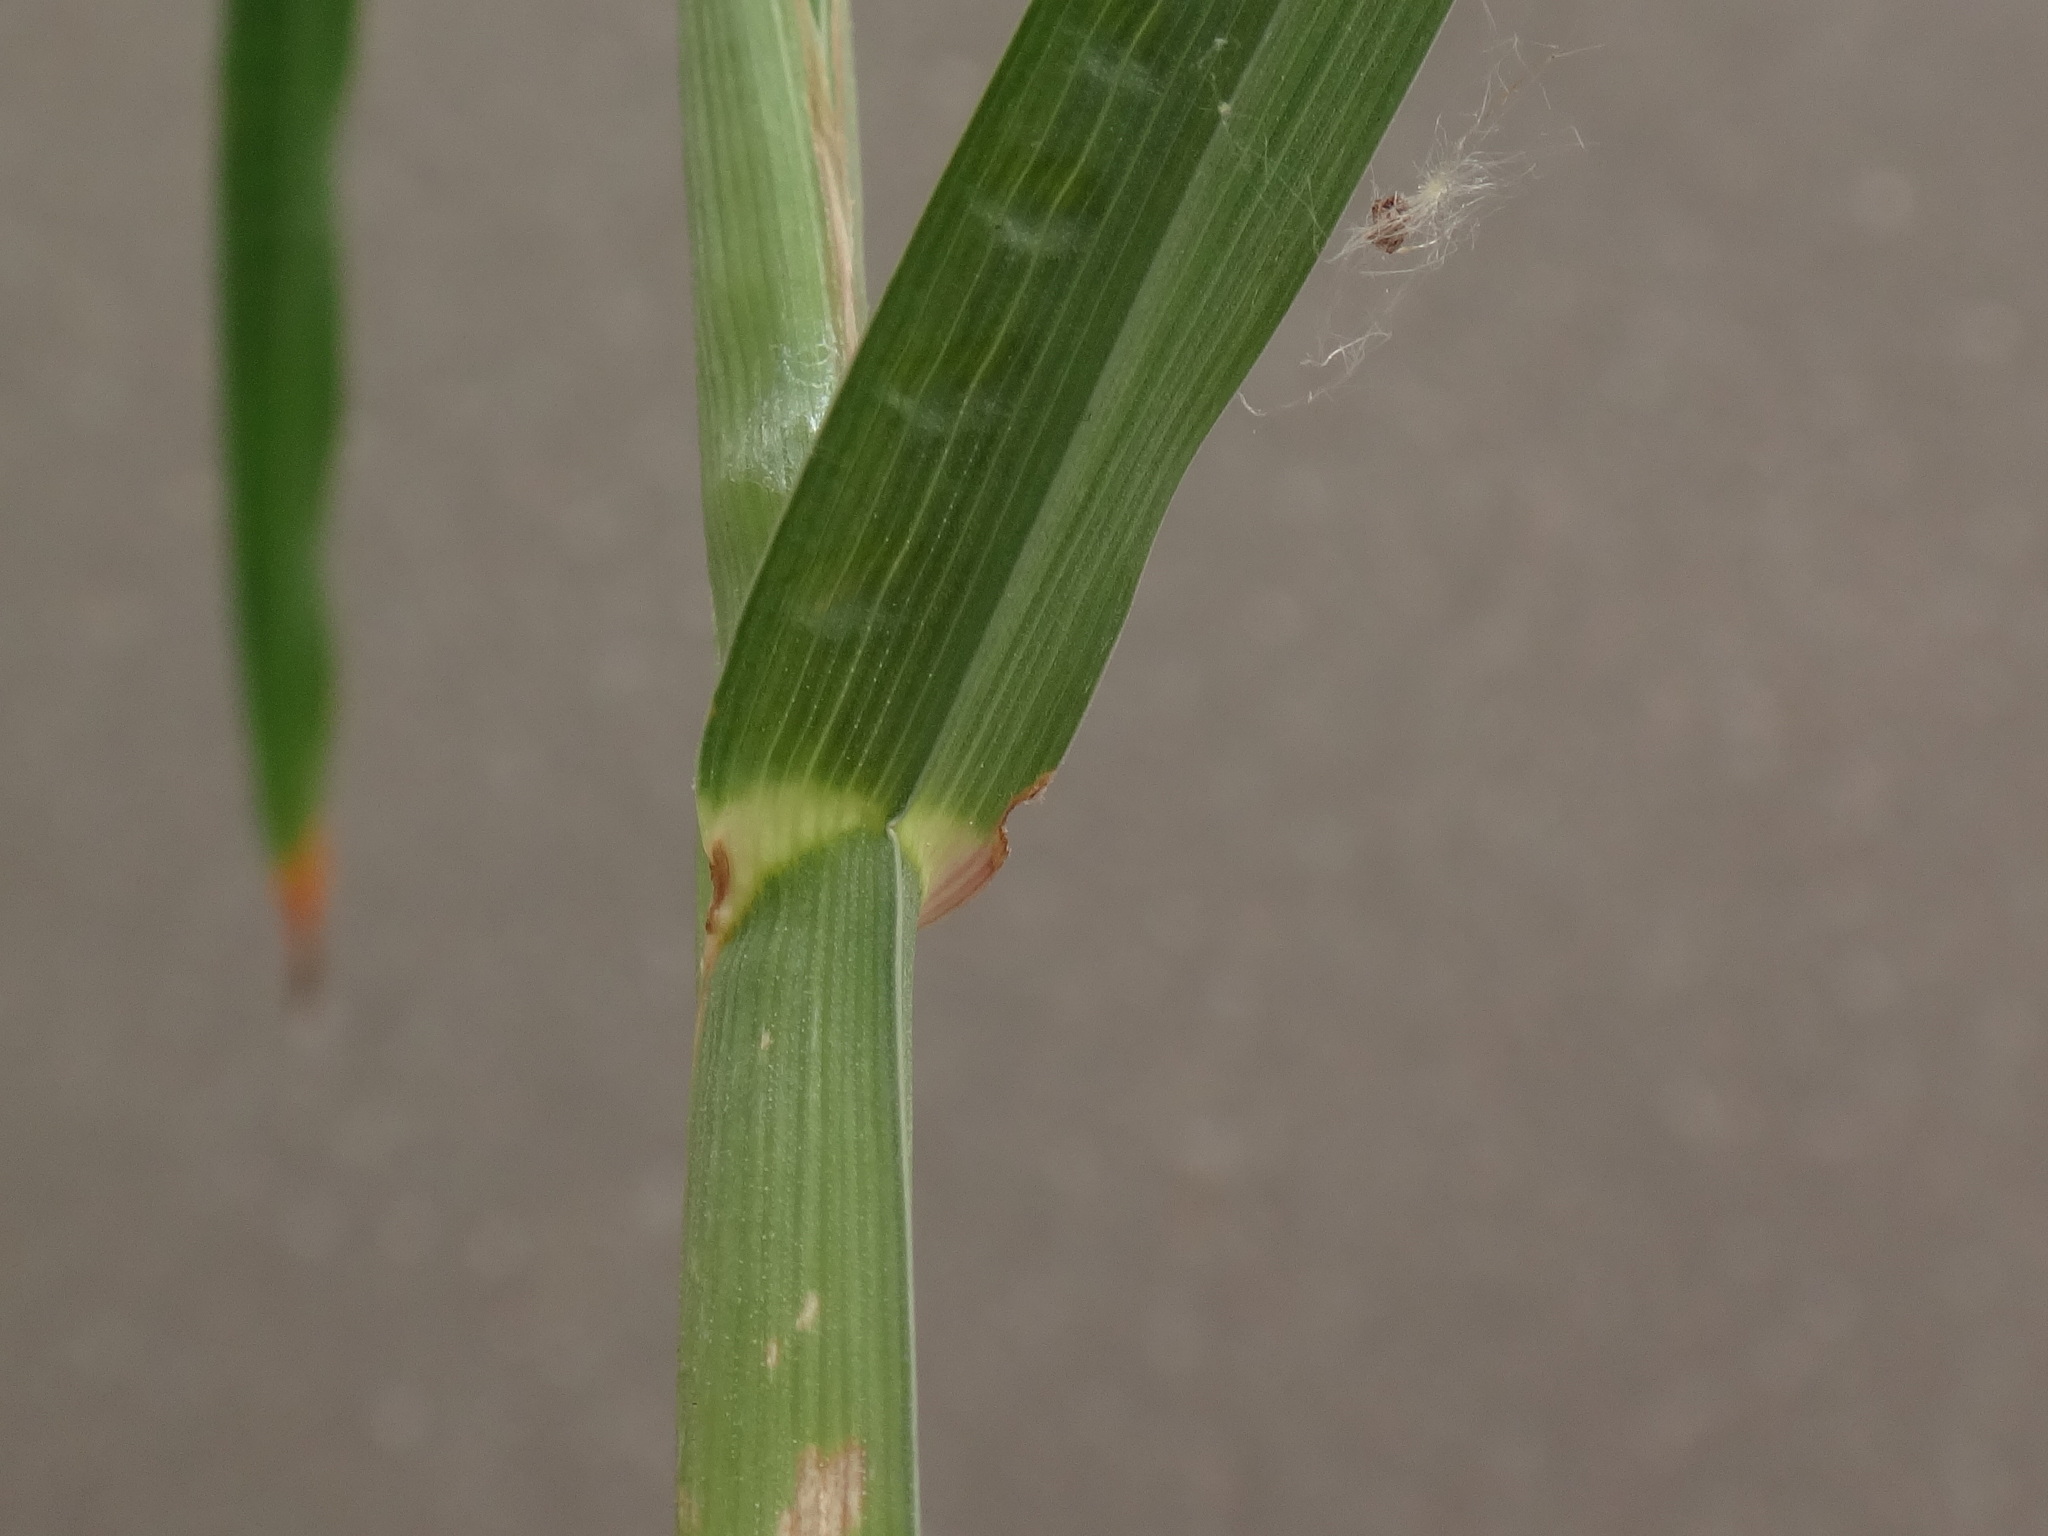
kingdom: Plantae
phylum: Tracheophyta
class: Liliopsida
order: Poales
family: Poaceae
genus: Dactylis
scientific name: Dactylis glomerata
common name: Orchardgrass
